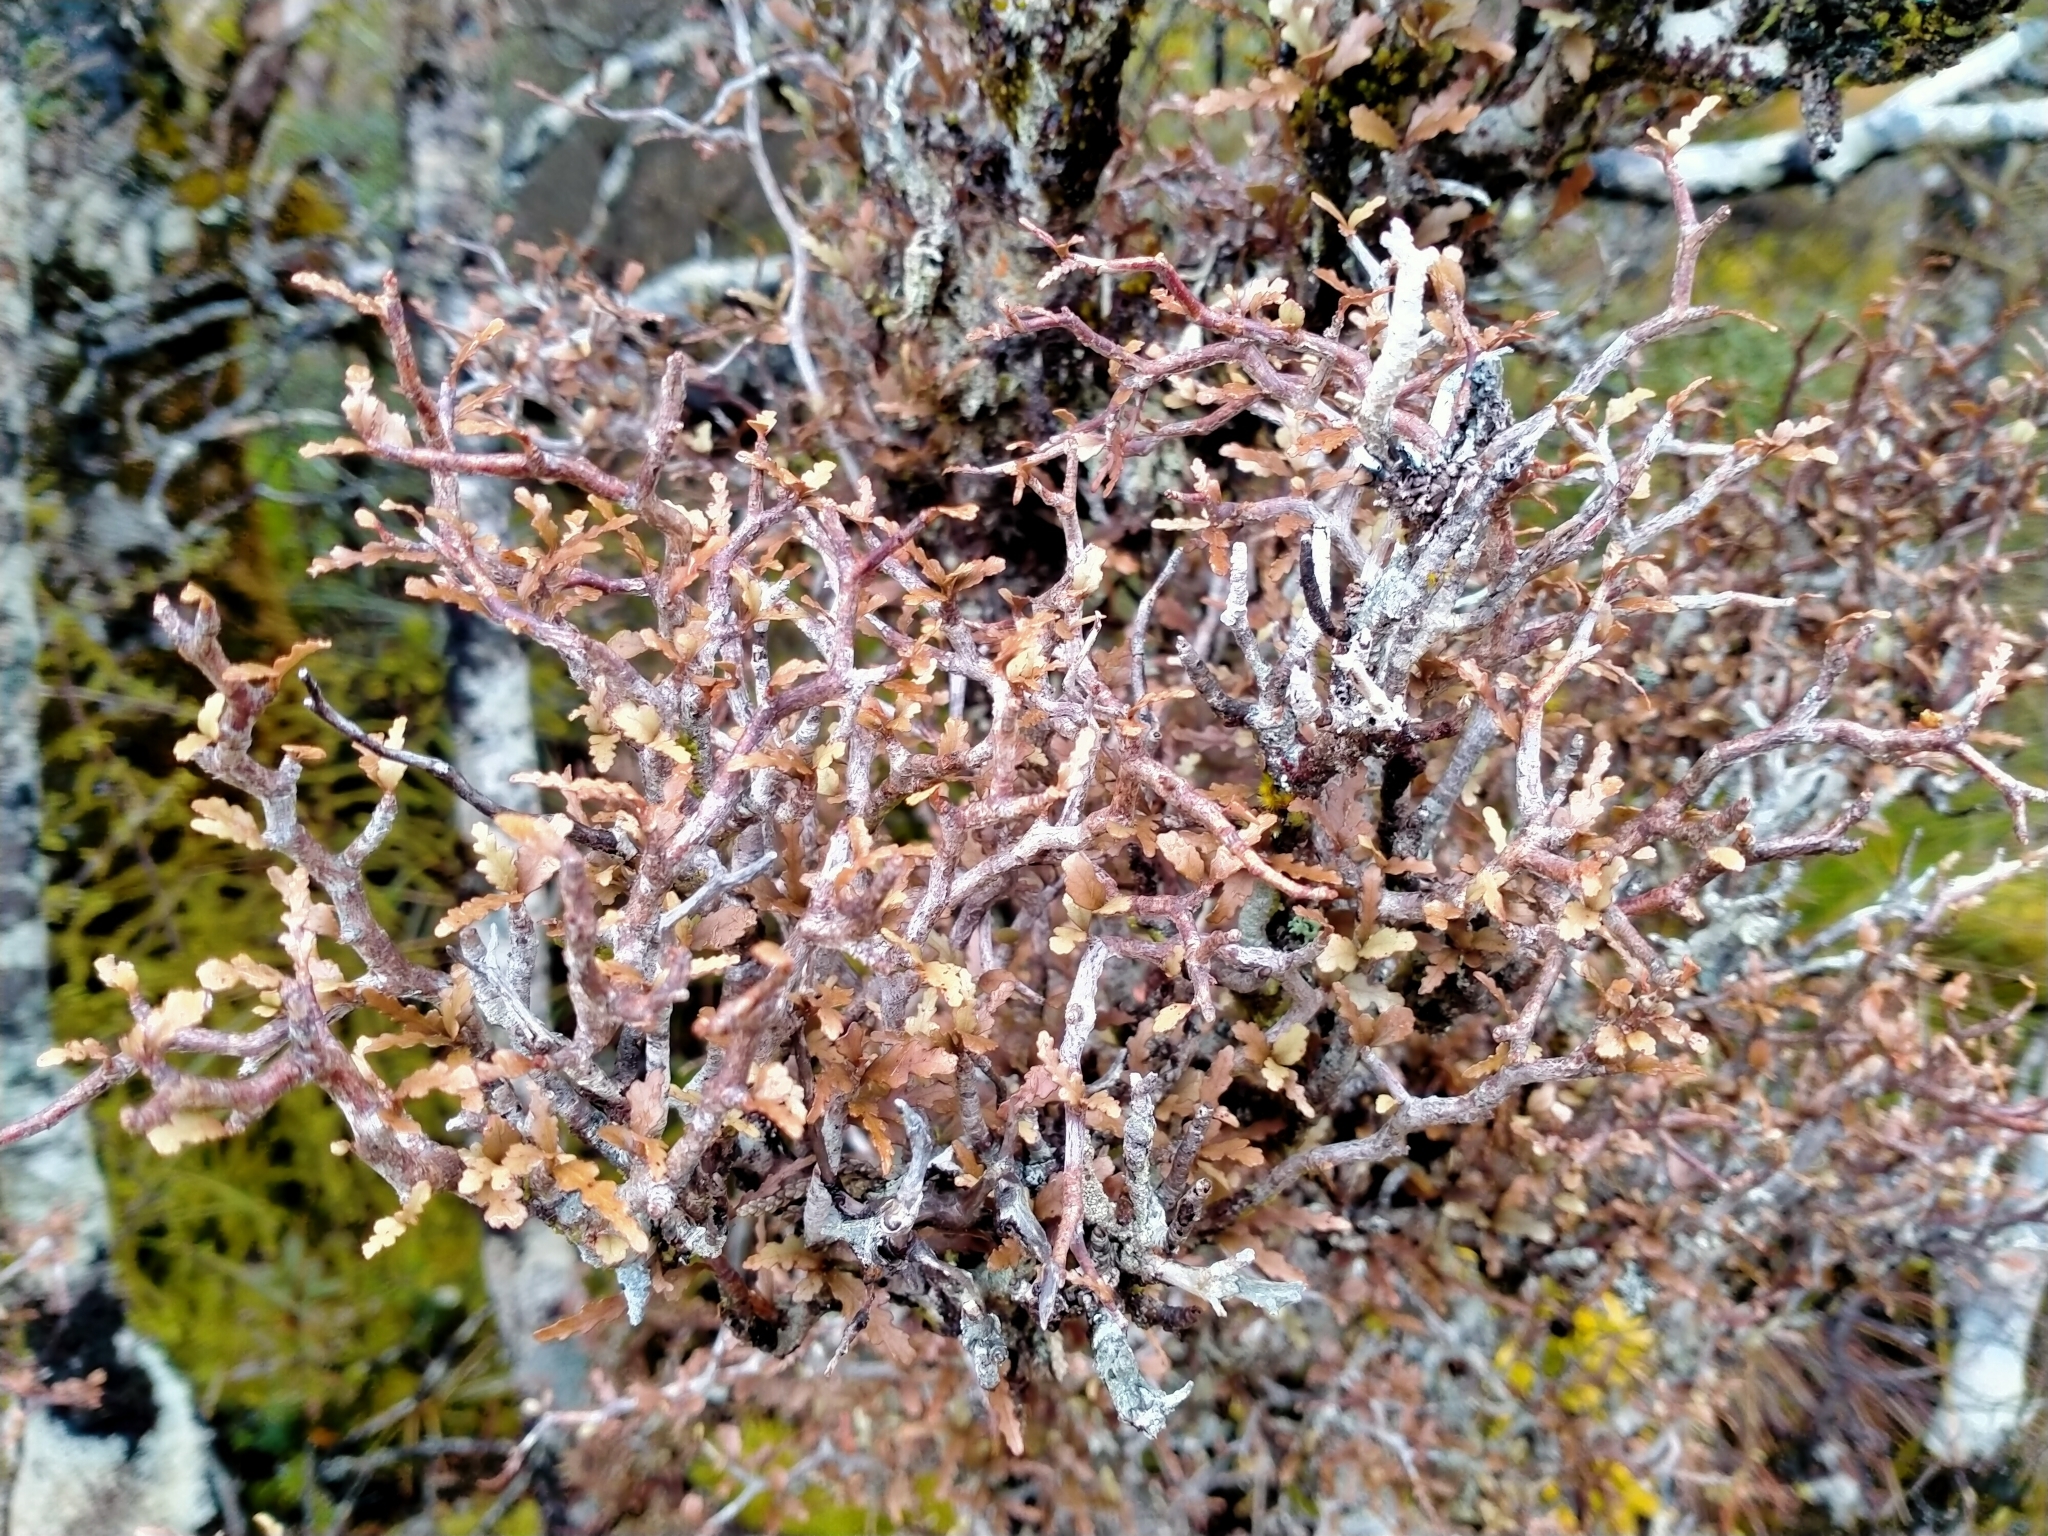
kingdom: Plantae
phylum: Tracheophyta
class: Magnoliopsida
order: Oxalidales
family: Elaeocarpaceae
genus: Elaeocarpus
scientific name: Elaeocarpus hookerianus
